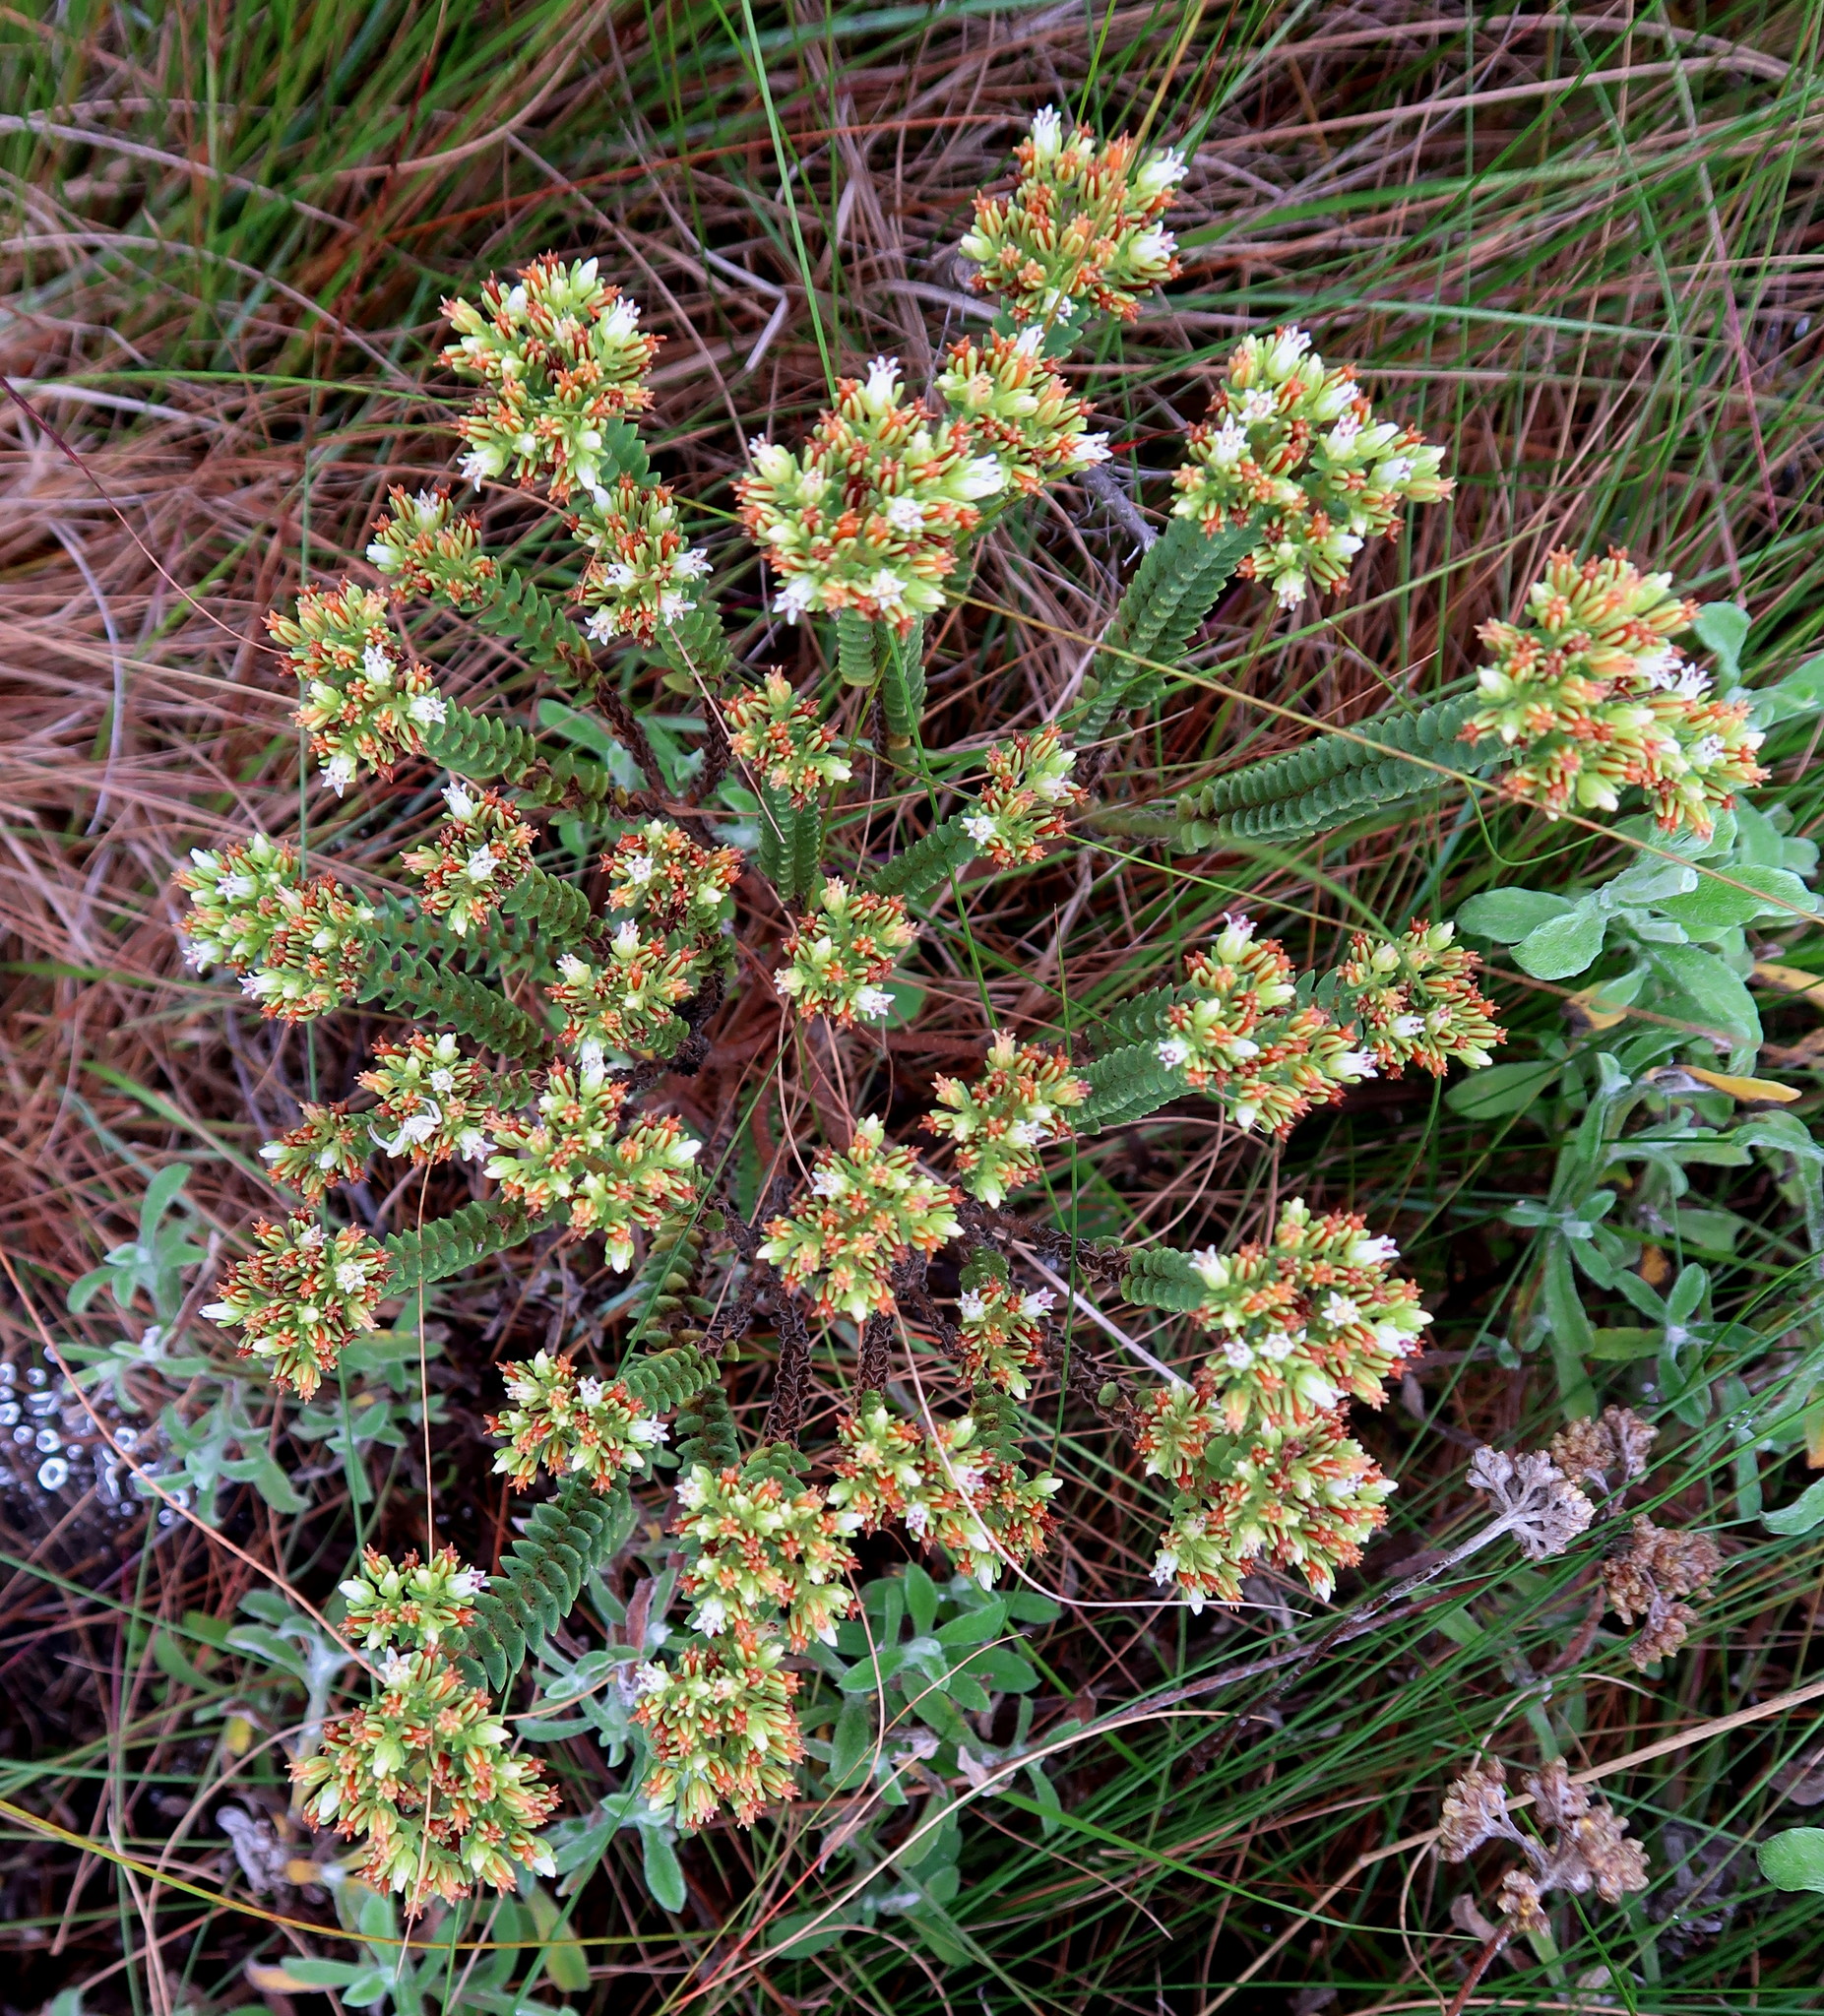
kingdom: Plantae
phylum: Tracheophyta
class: Magnoliopsida
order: Saxifragales
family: Crassulaceae
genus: Crassula
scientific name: Crassula ericoides
